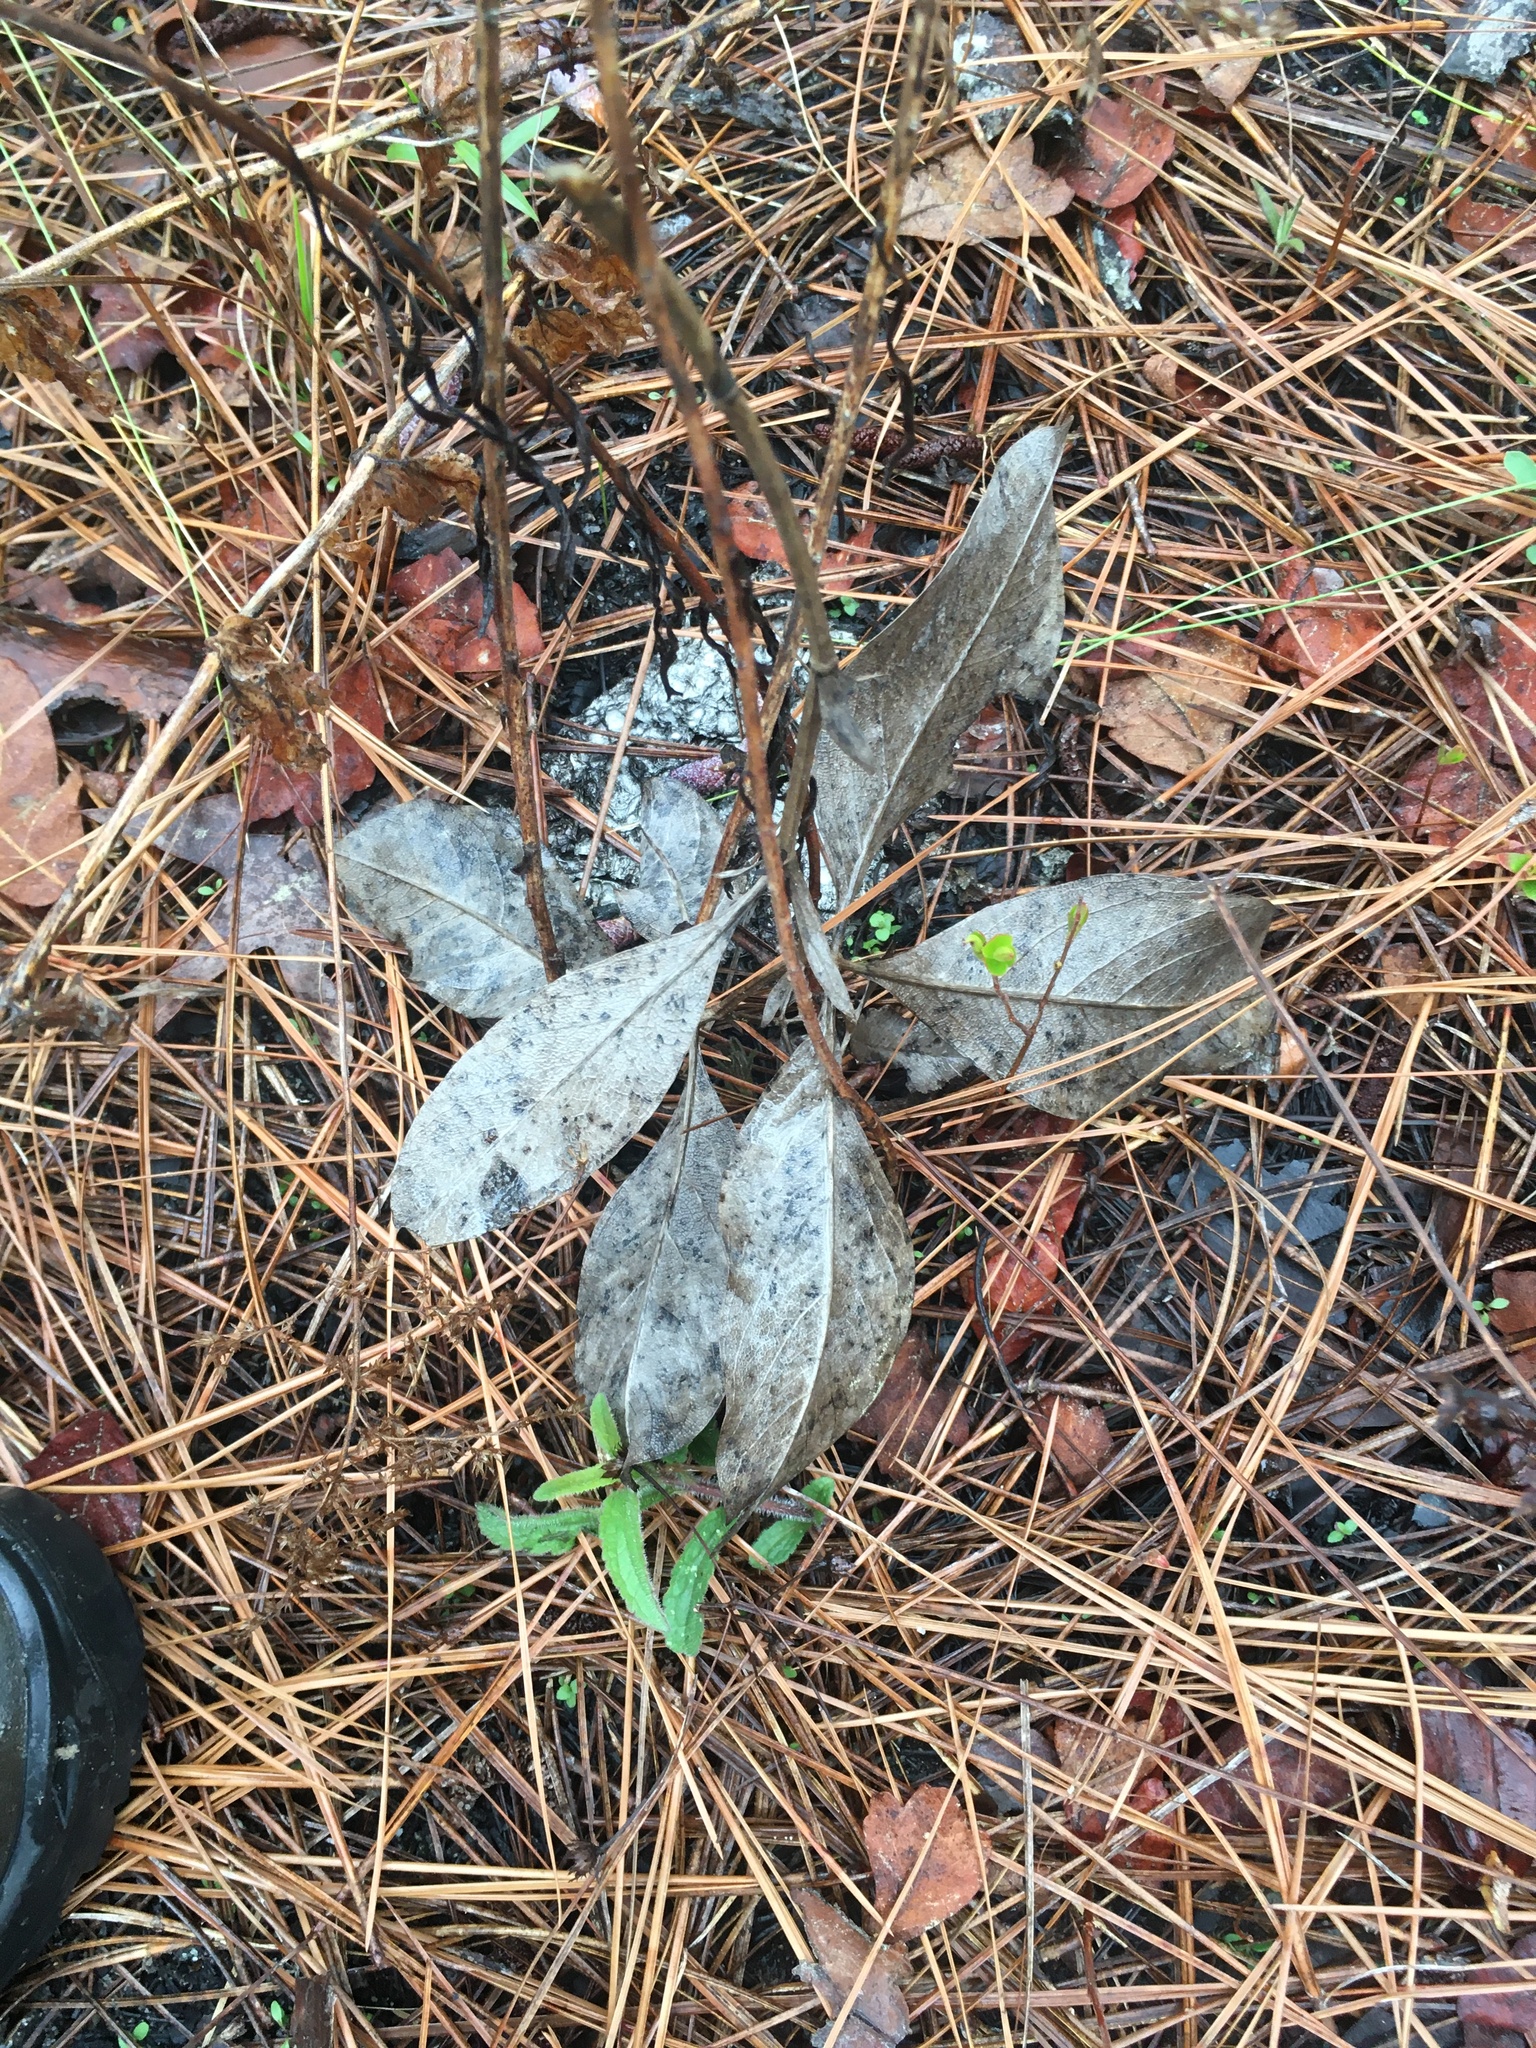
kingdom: Plantae
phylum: Tracheophyta
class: Magnoliopsida
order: Fabales
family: Fabaceae
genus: Baptisia
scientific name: Baptisia cinerea
